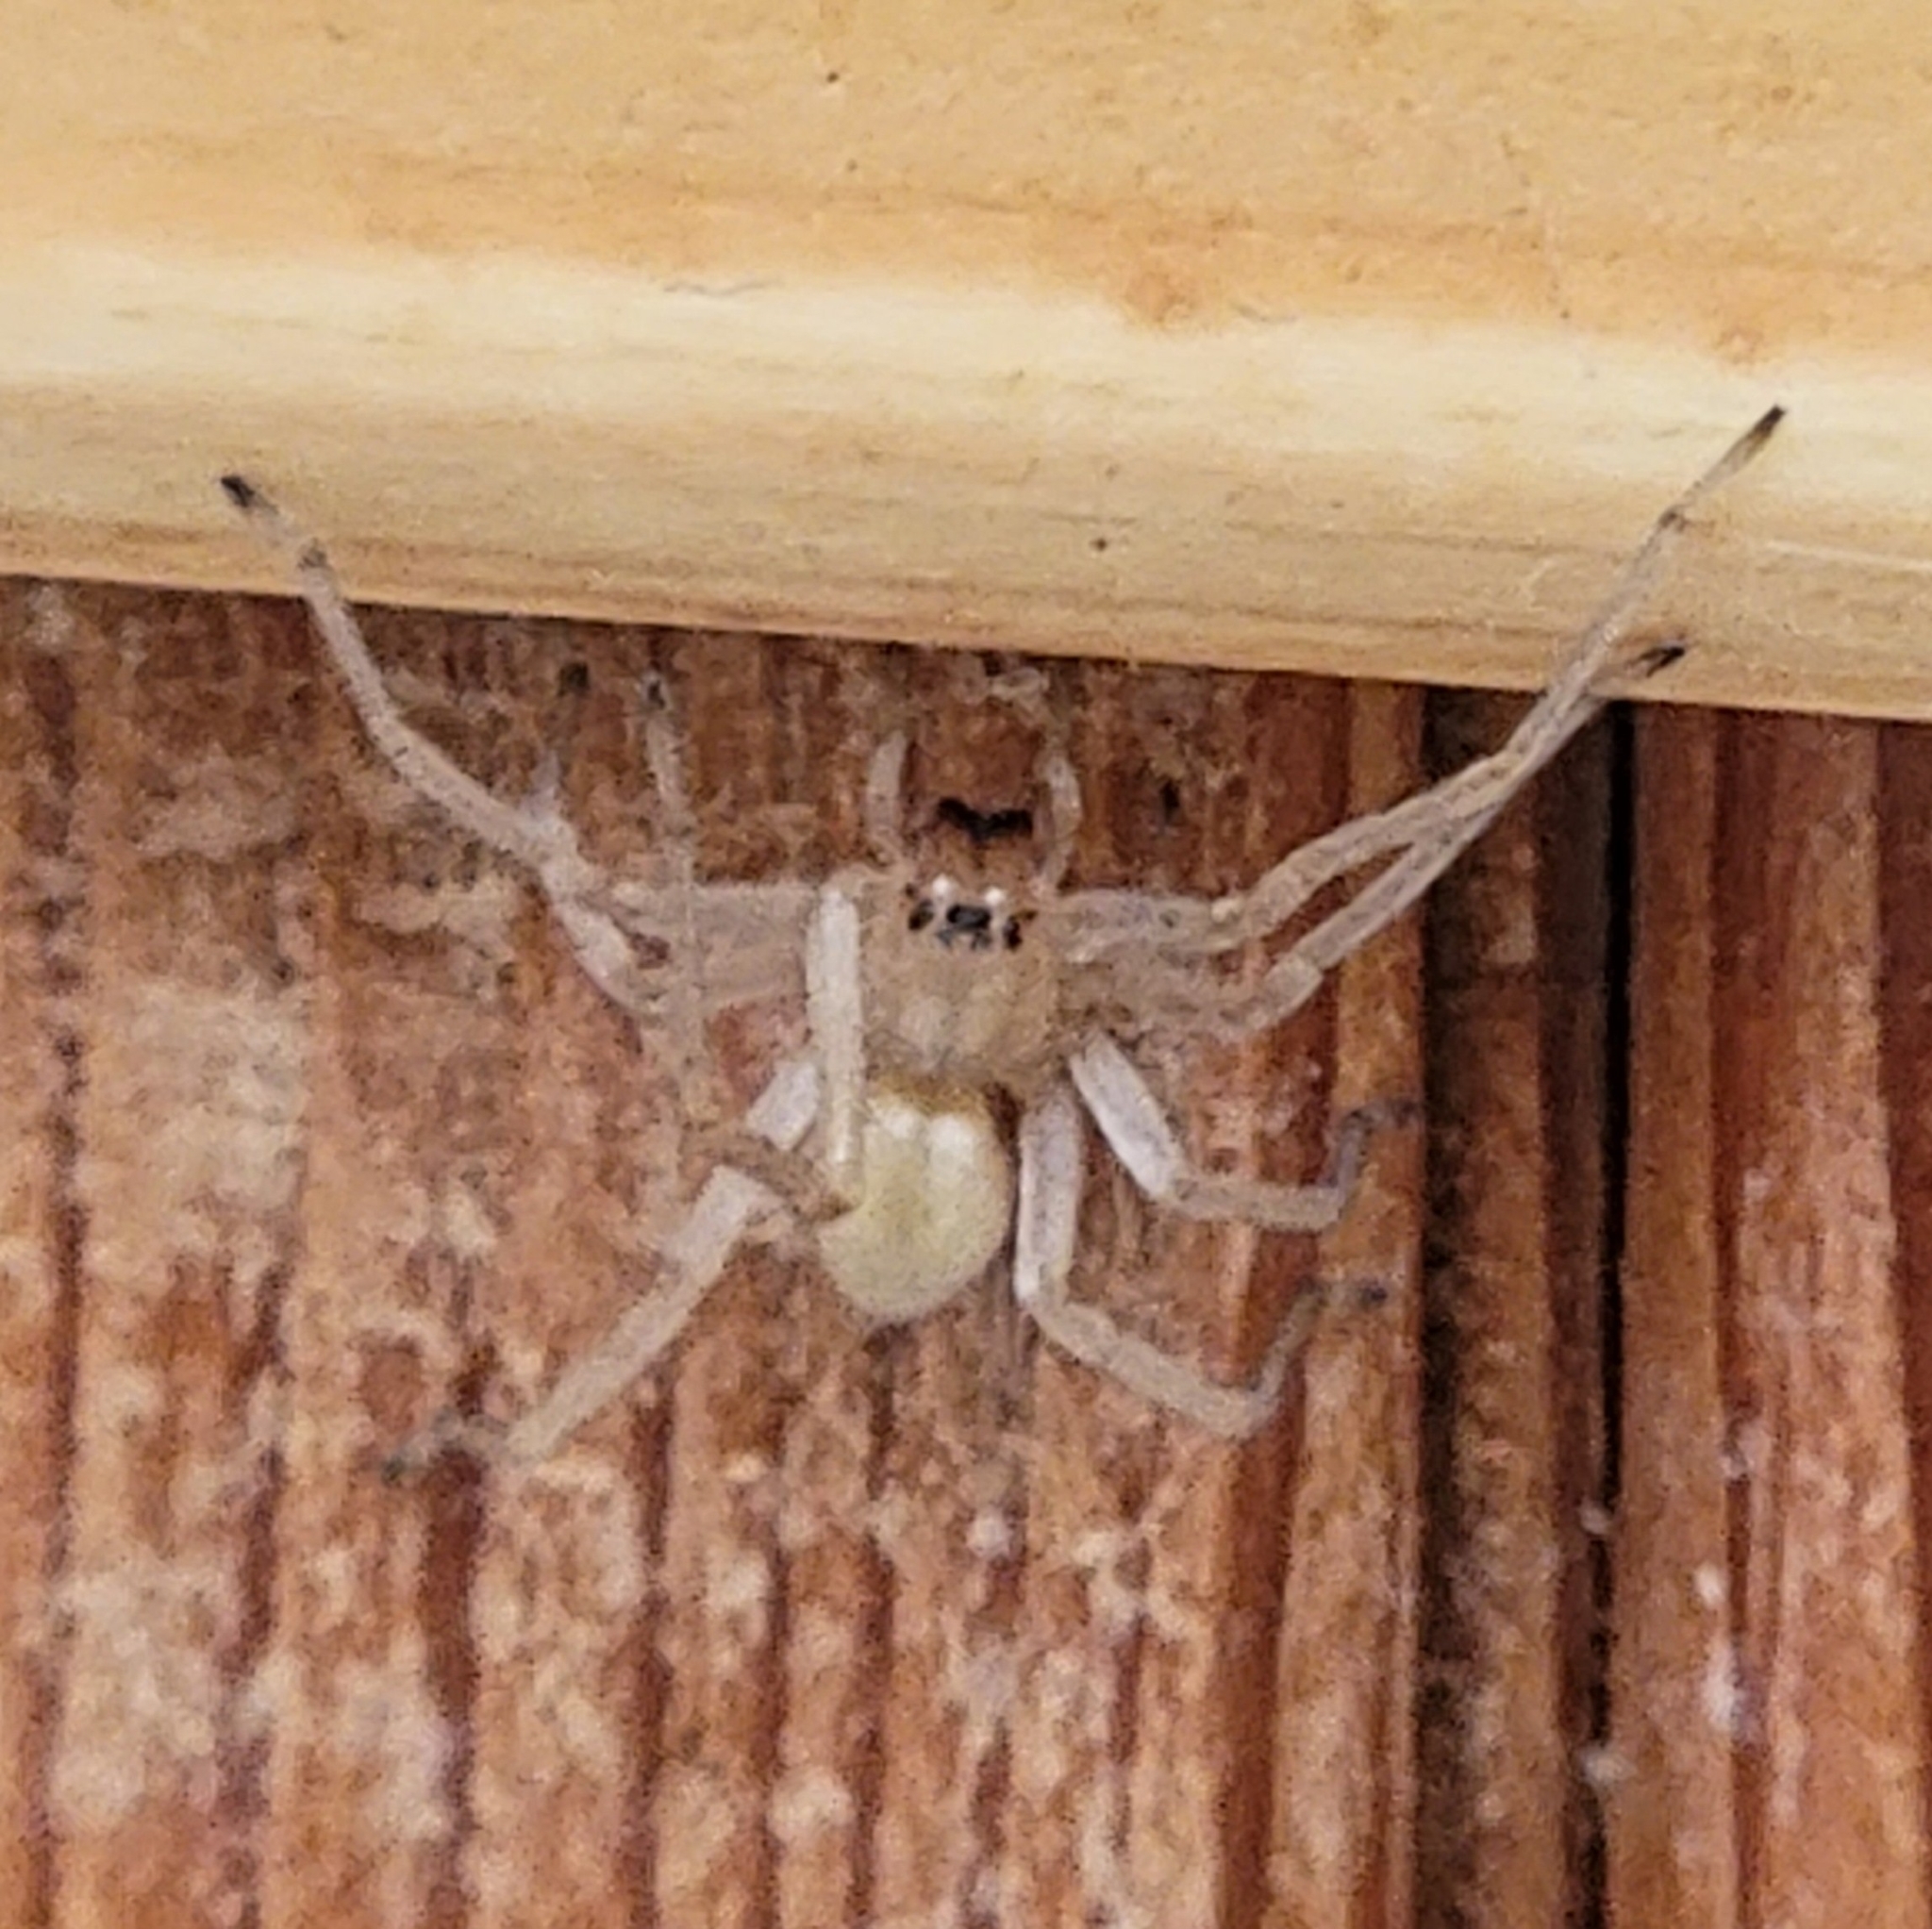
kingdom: Animalia
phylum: Arthropoda
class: Arachnida
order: Araneae
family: Cheiracanthiidae
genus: Cheiracanthium
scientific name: Cheiracanthium mildei
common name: Northern yellow sac spider
